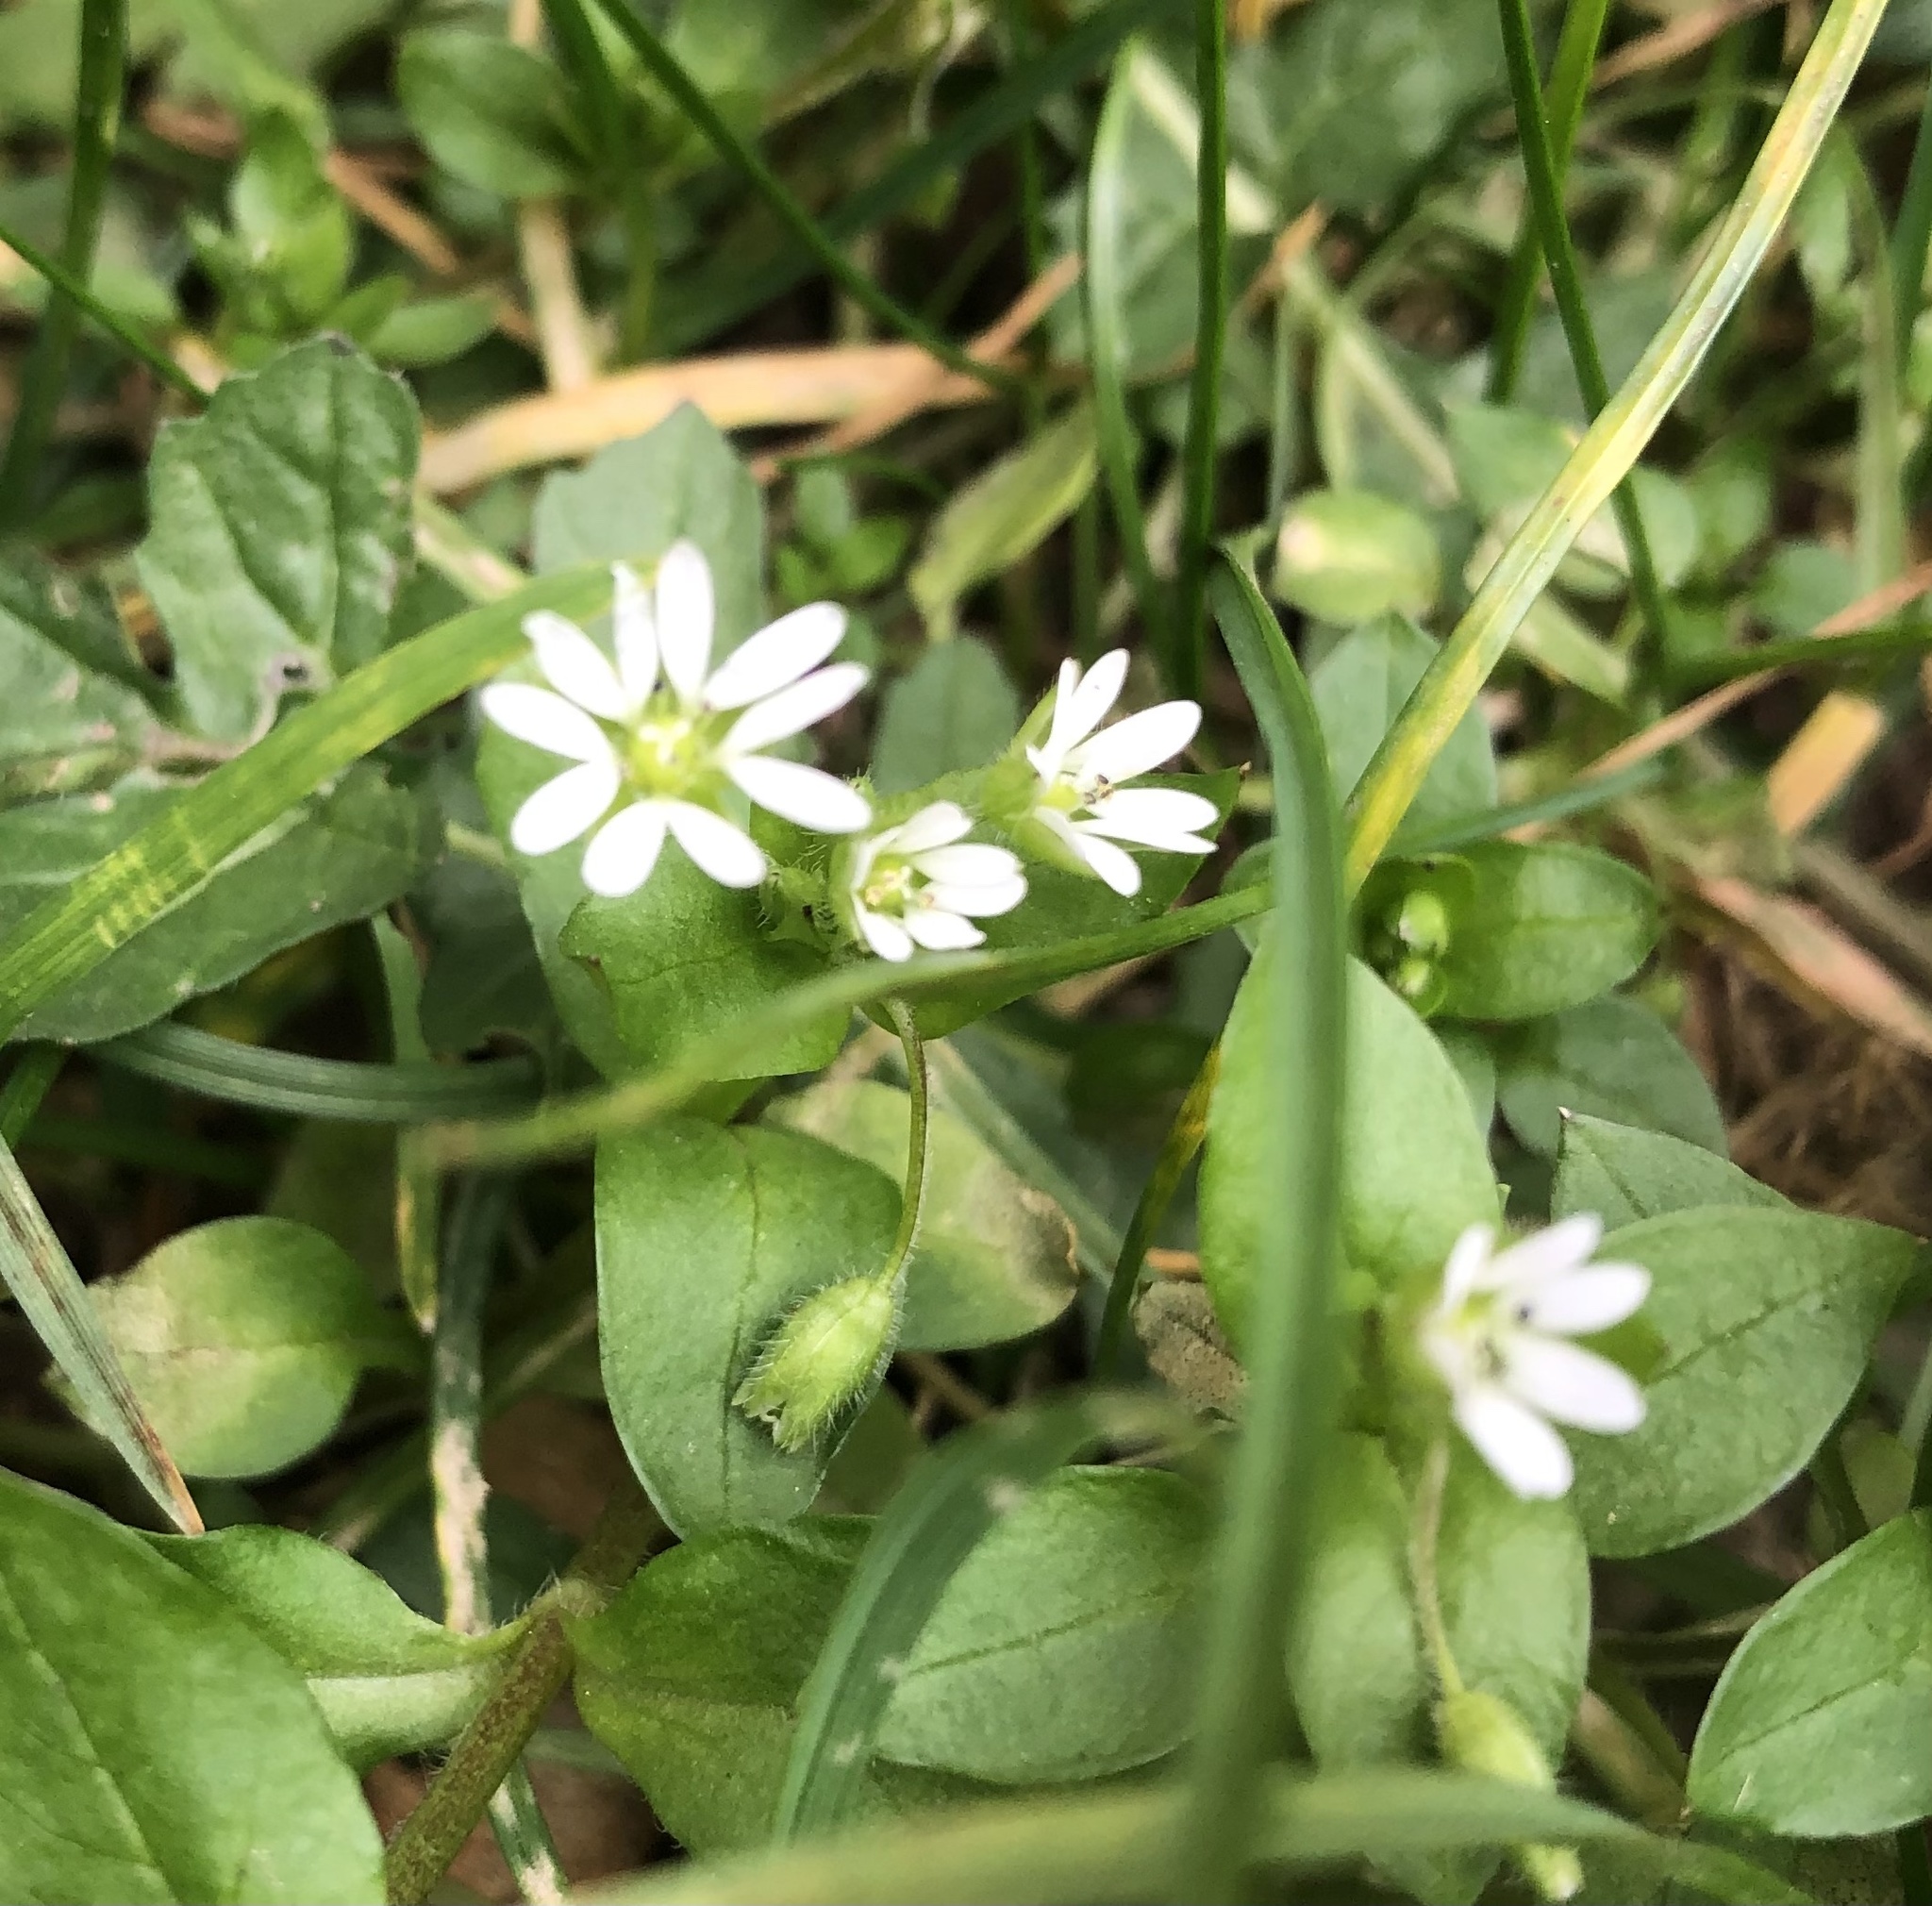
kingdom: Plantae
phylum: Tracheophyta
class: Magnoliopsida
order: Caryophyllales
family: Caryophyllaceae
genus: Stellaria
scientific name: Stellaria media
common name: Common chickweed
